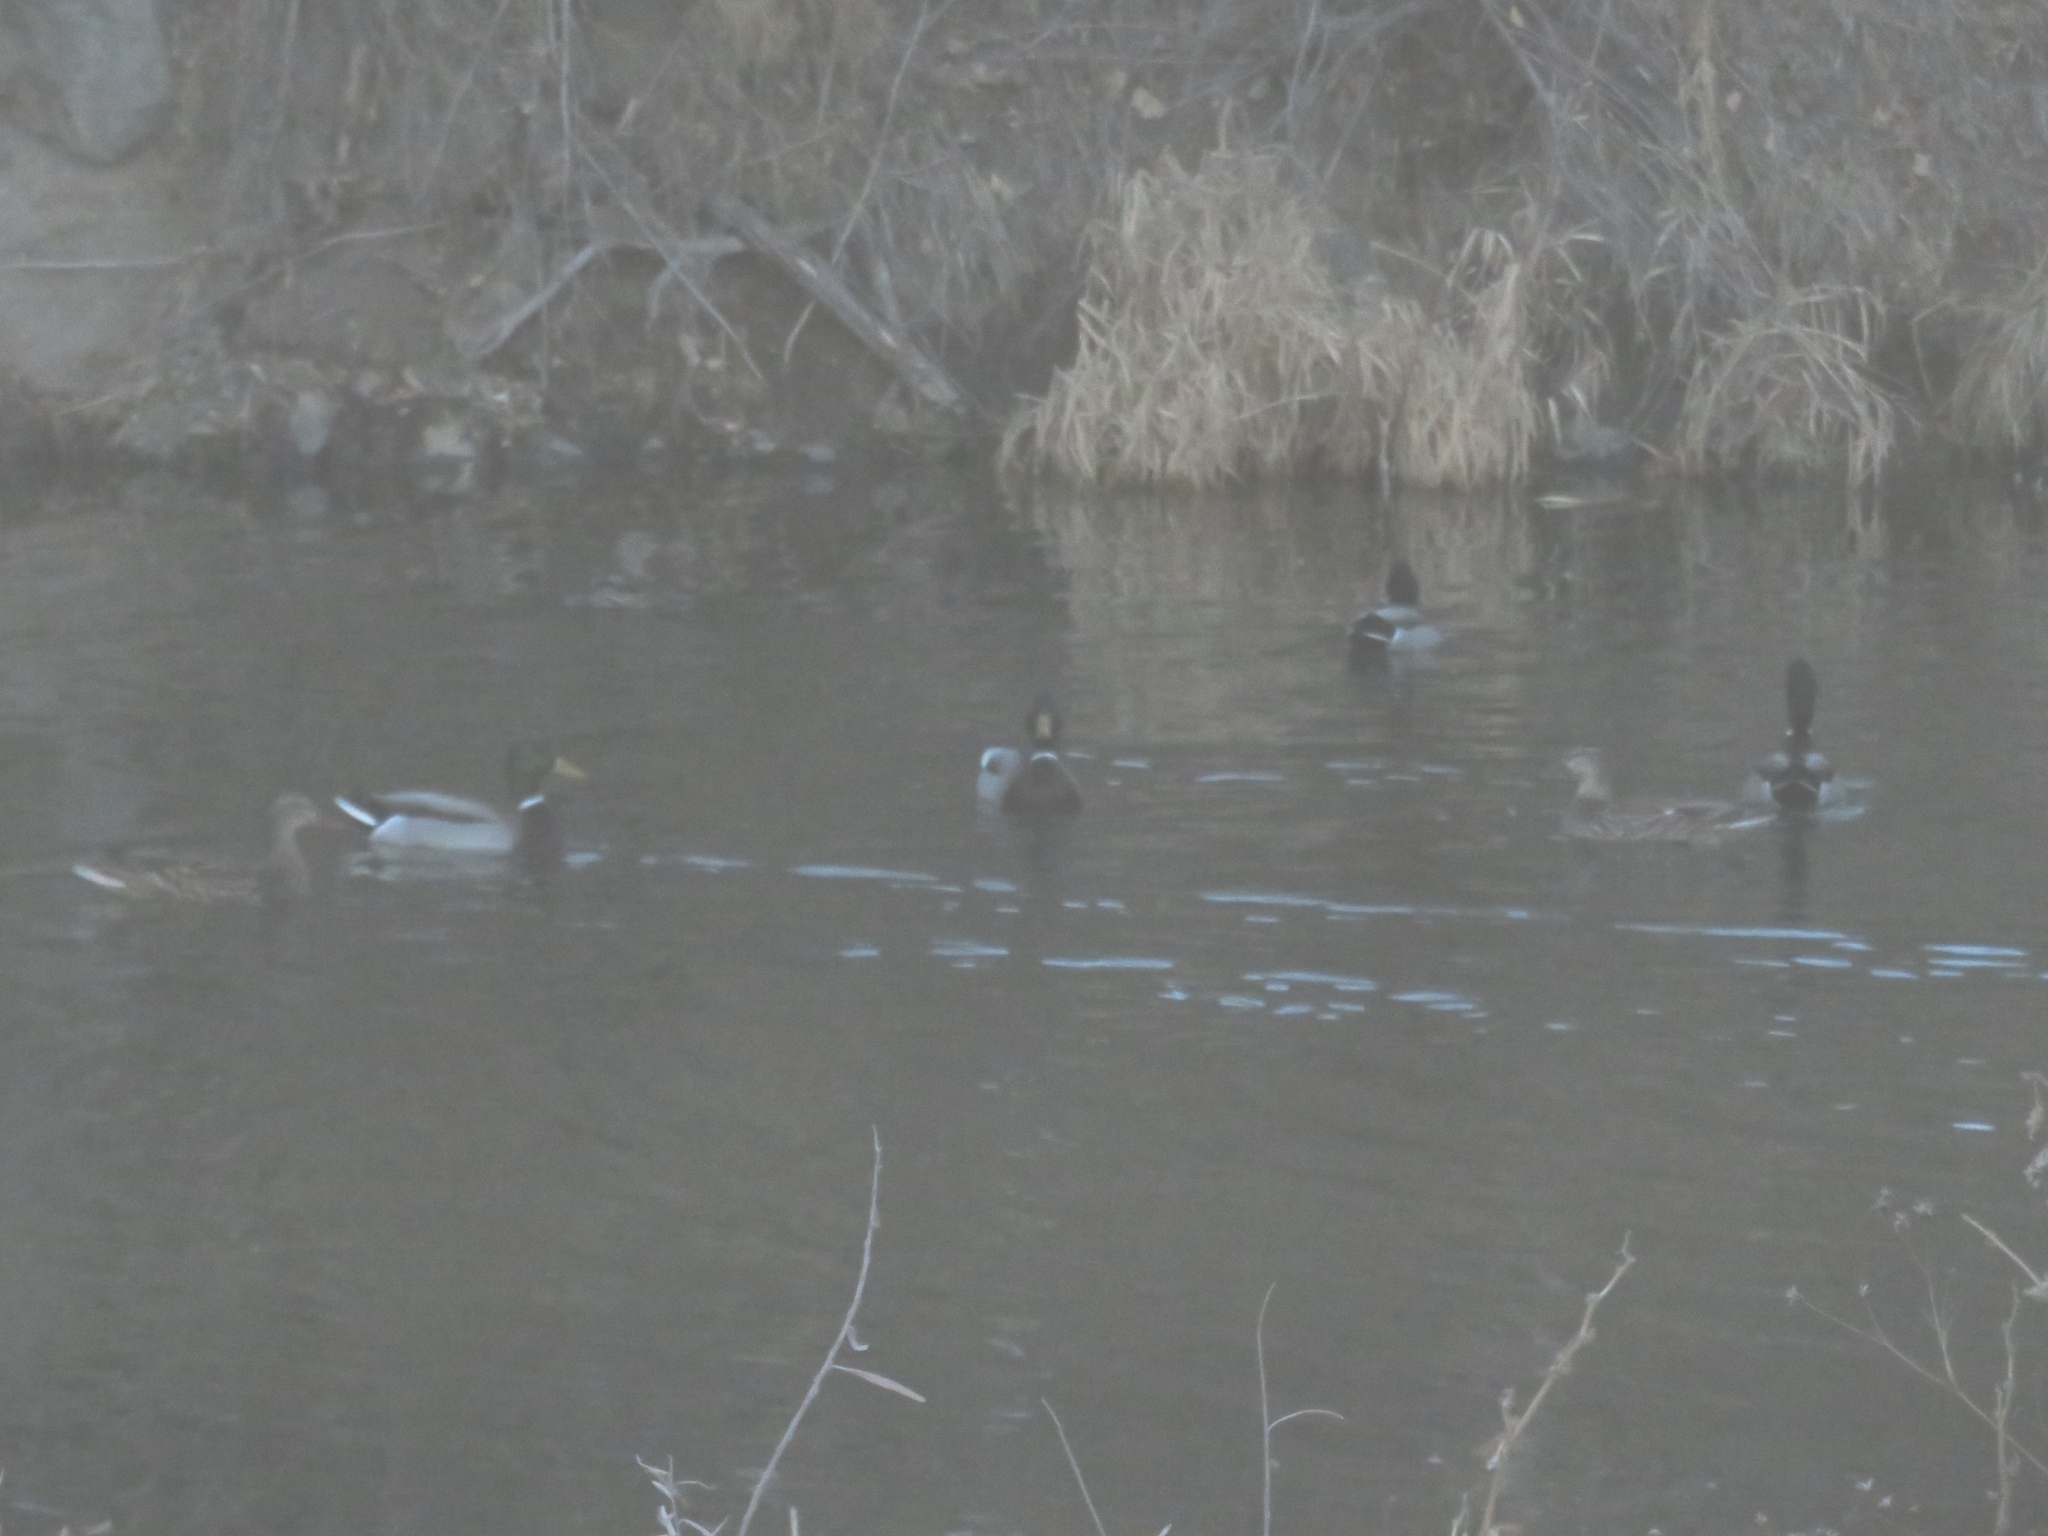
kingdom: Animalia
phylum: Chordata
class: Aves
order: Anseriformes
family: Anatidae
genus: Anas
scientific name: Anas platyrhynchos
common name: Mallard
